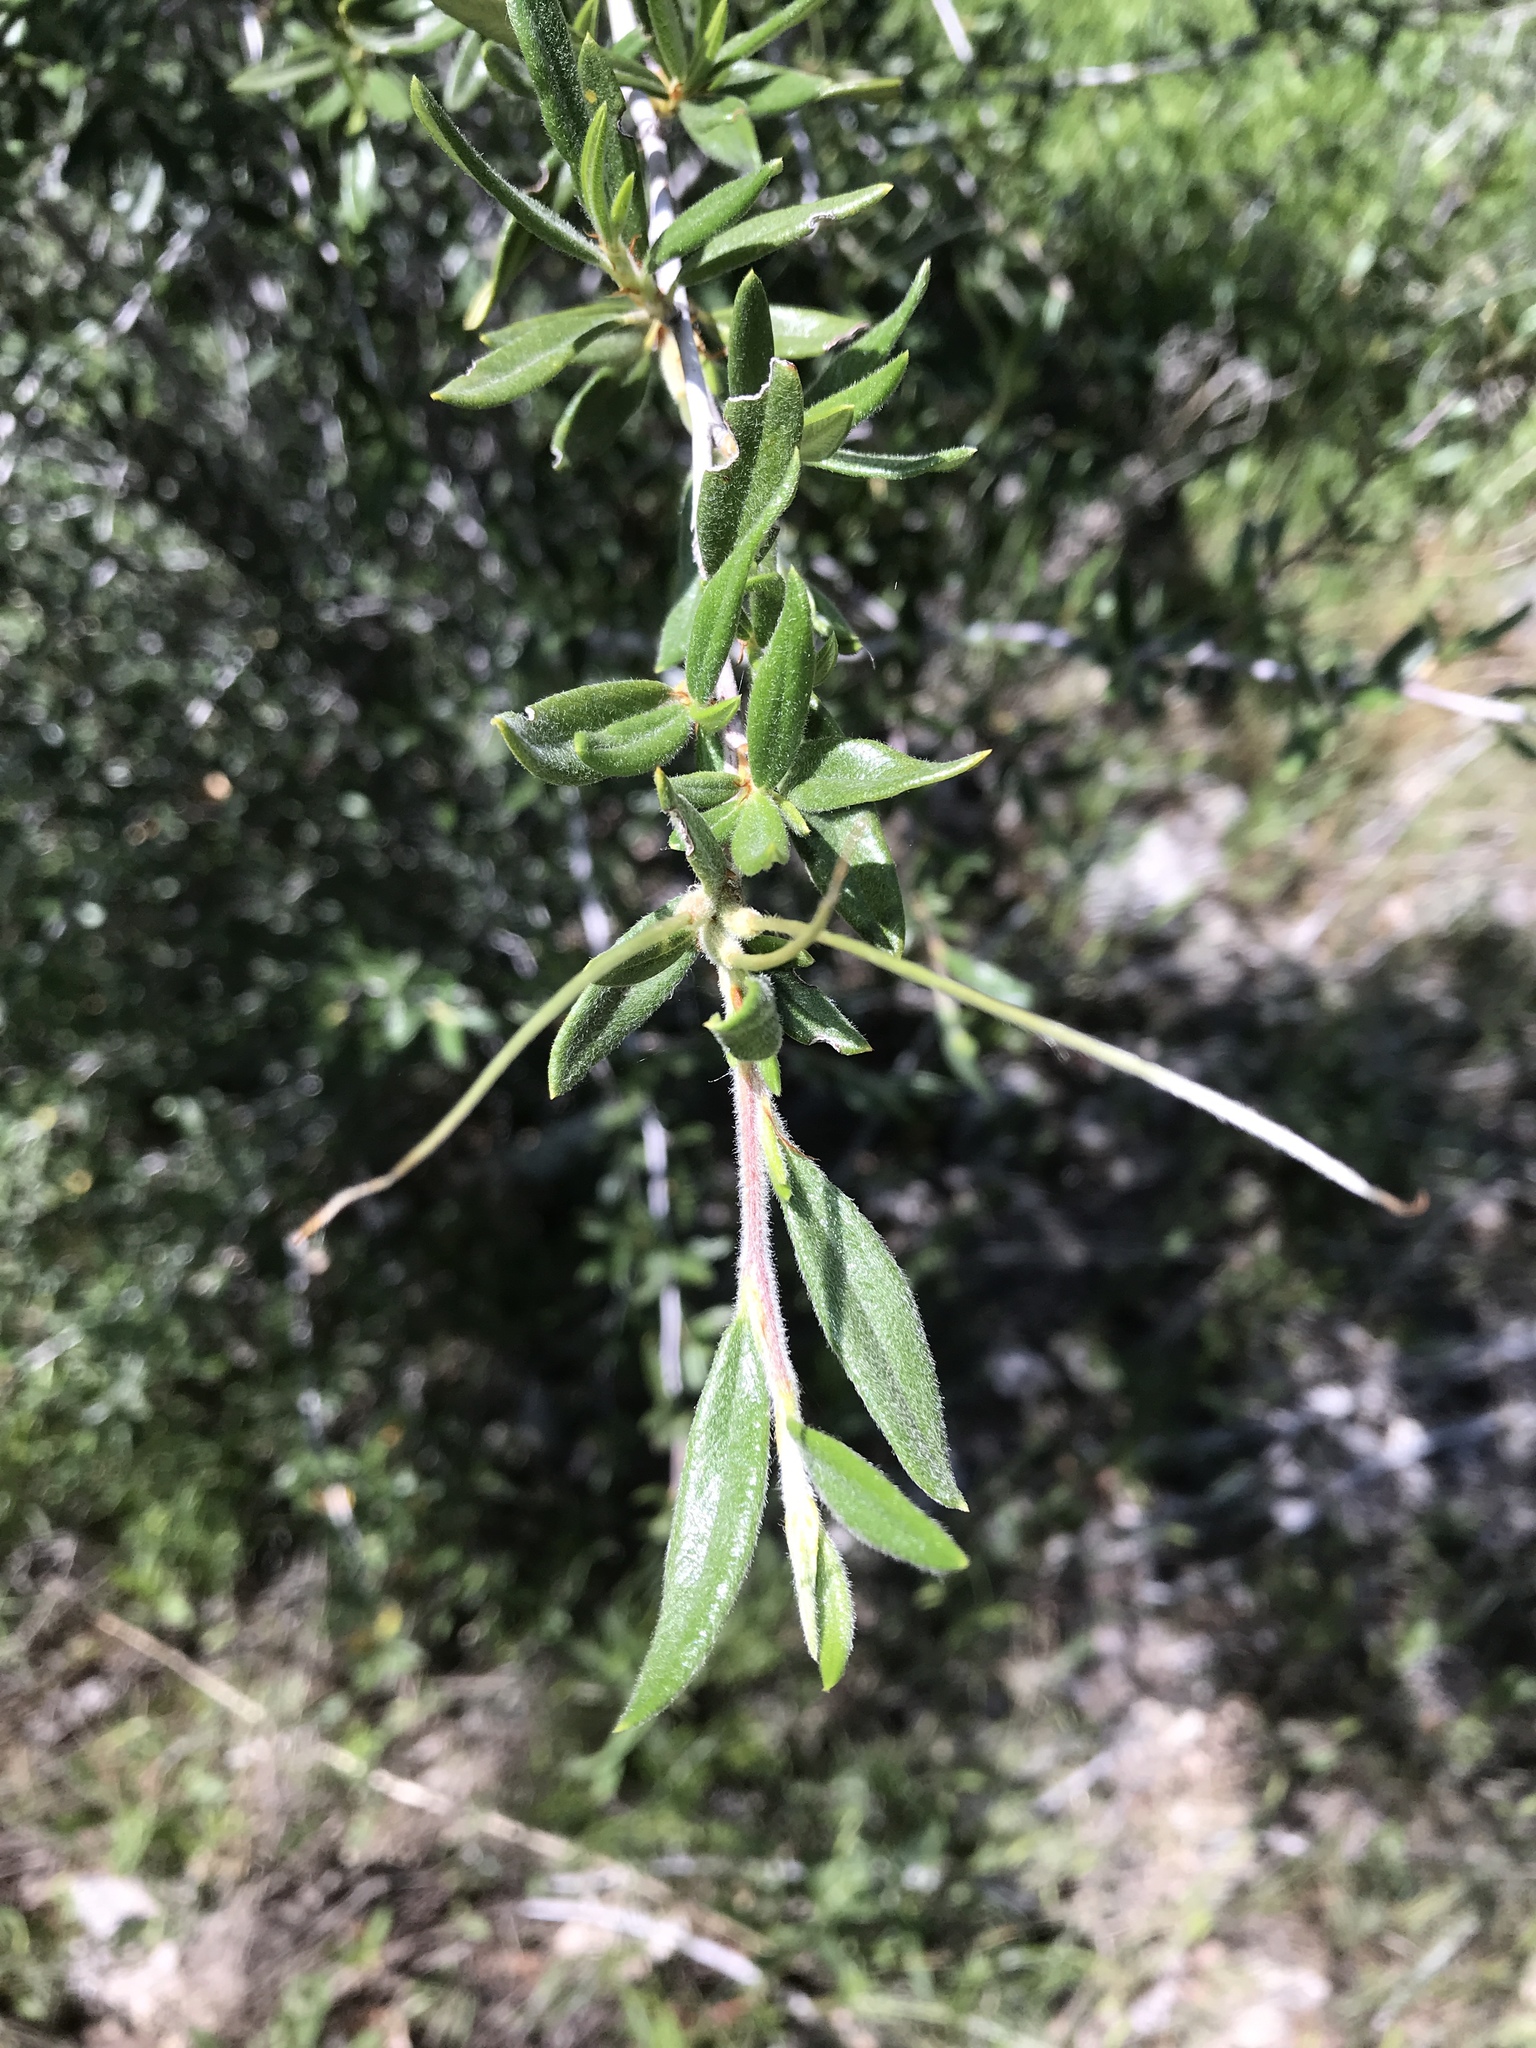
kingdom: Plantae
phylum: Tracheophyta
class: Magnoliopsida
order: Rosales
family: Rosaceae
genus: Cercocarpus
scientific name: Cercocarpus ledifolius
